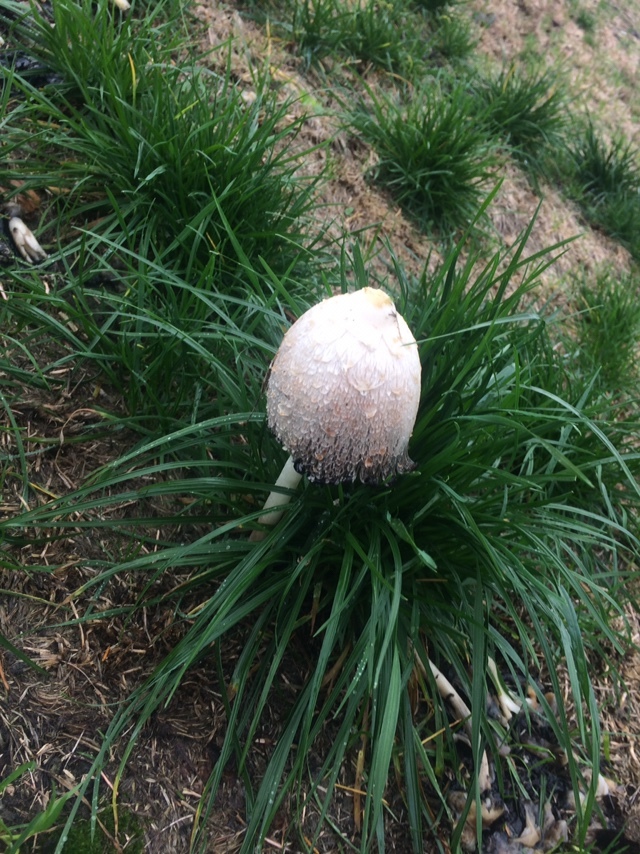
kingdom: Fungi
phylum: Basidiomycota
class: Agaricomycetes
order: Agaricales
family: Agaricaceae
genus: Coprinus
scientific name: Coprinus comatus
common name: Lawyer's wig
